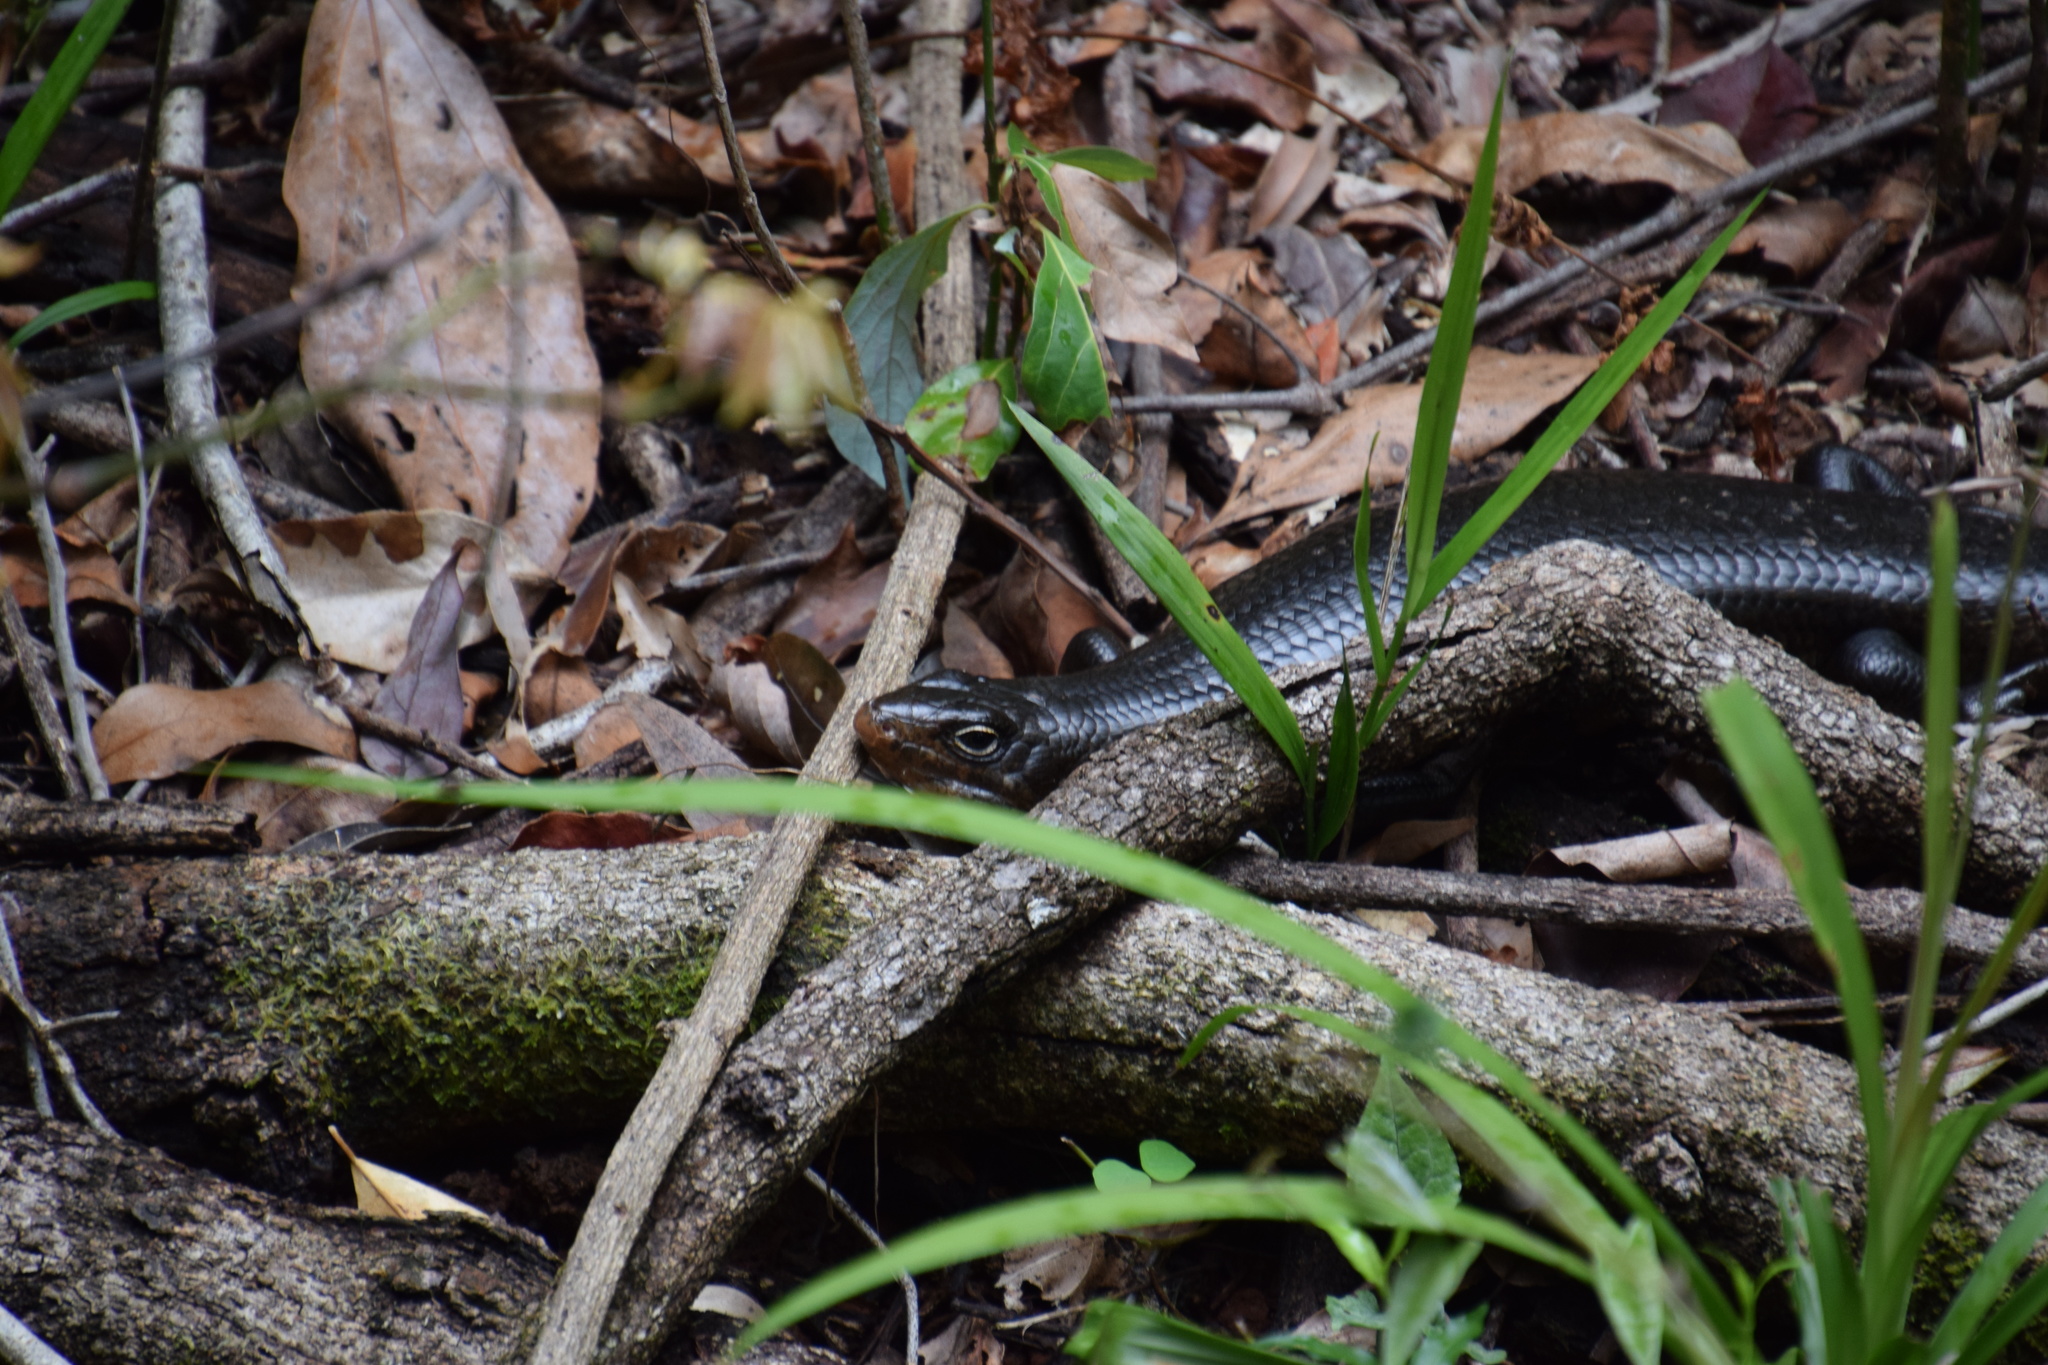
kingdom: Animalia
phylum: Chordata
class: Squamata
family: Scincidae
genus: Bellatorias
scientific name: Bellatorias major
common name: Land mullet
